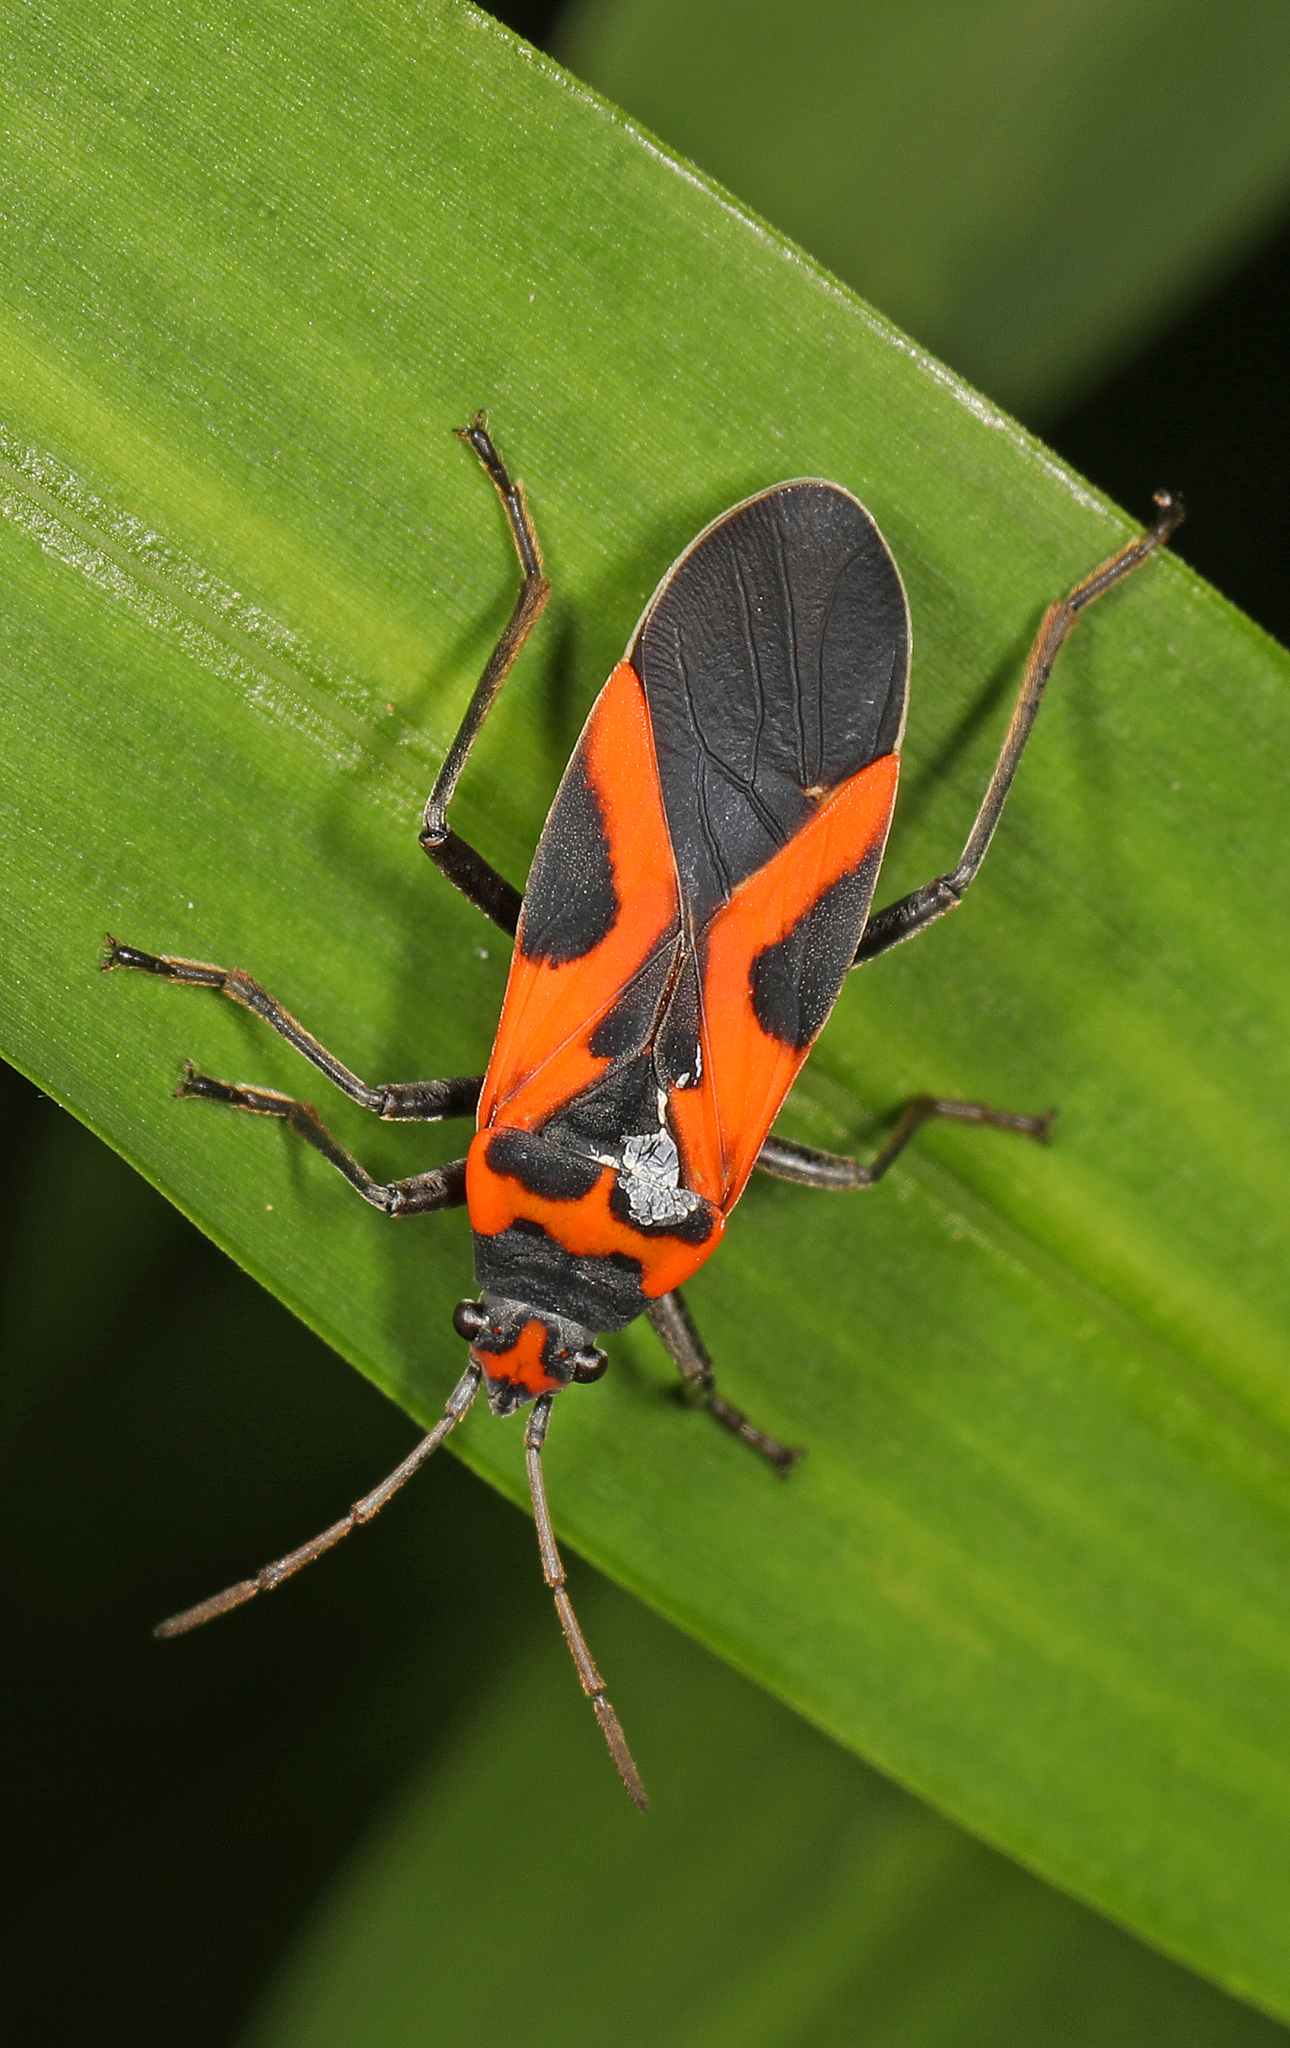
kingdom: Animalia
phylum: Arthropoda
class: Insecta
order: Hemiptera
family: Lygaeidae
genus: Lygaeus
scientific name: Lygaeus turcicus
